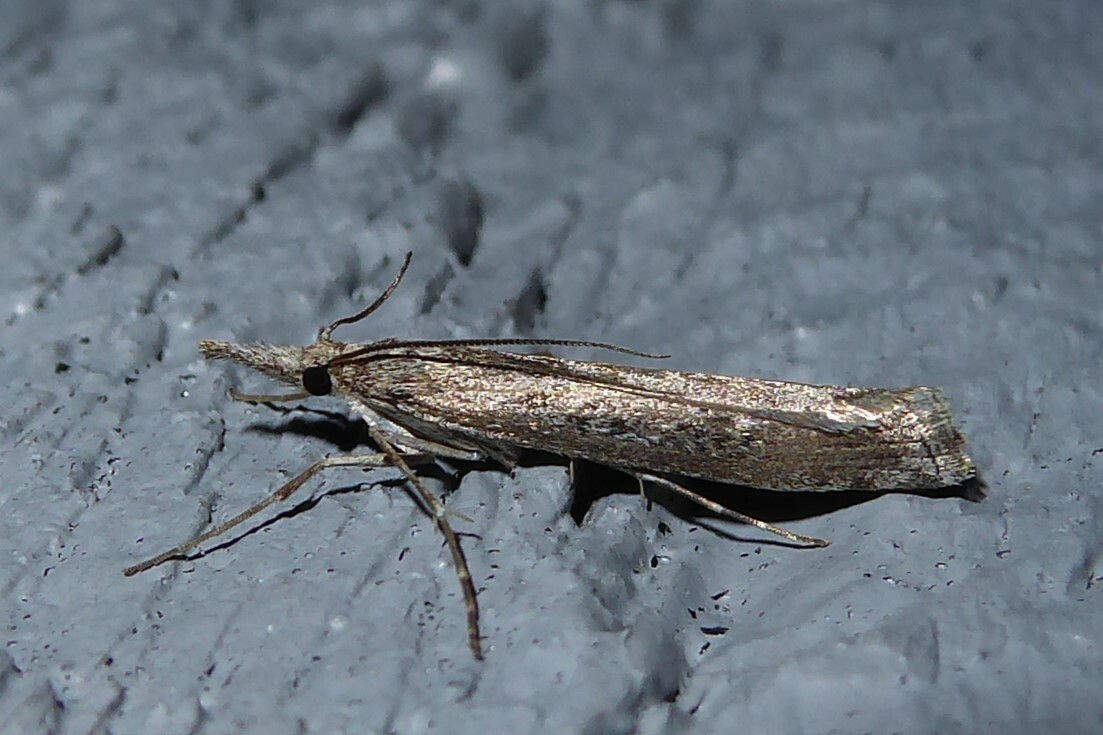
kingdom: Animalia
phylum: Arthropoda
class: Insecta
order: Lepidoptera
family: Crambidae
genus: Orocrambus
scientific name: Orocrambus cyclopicus
